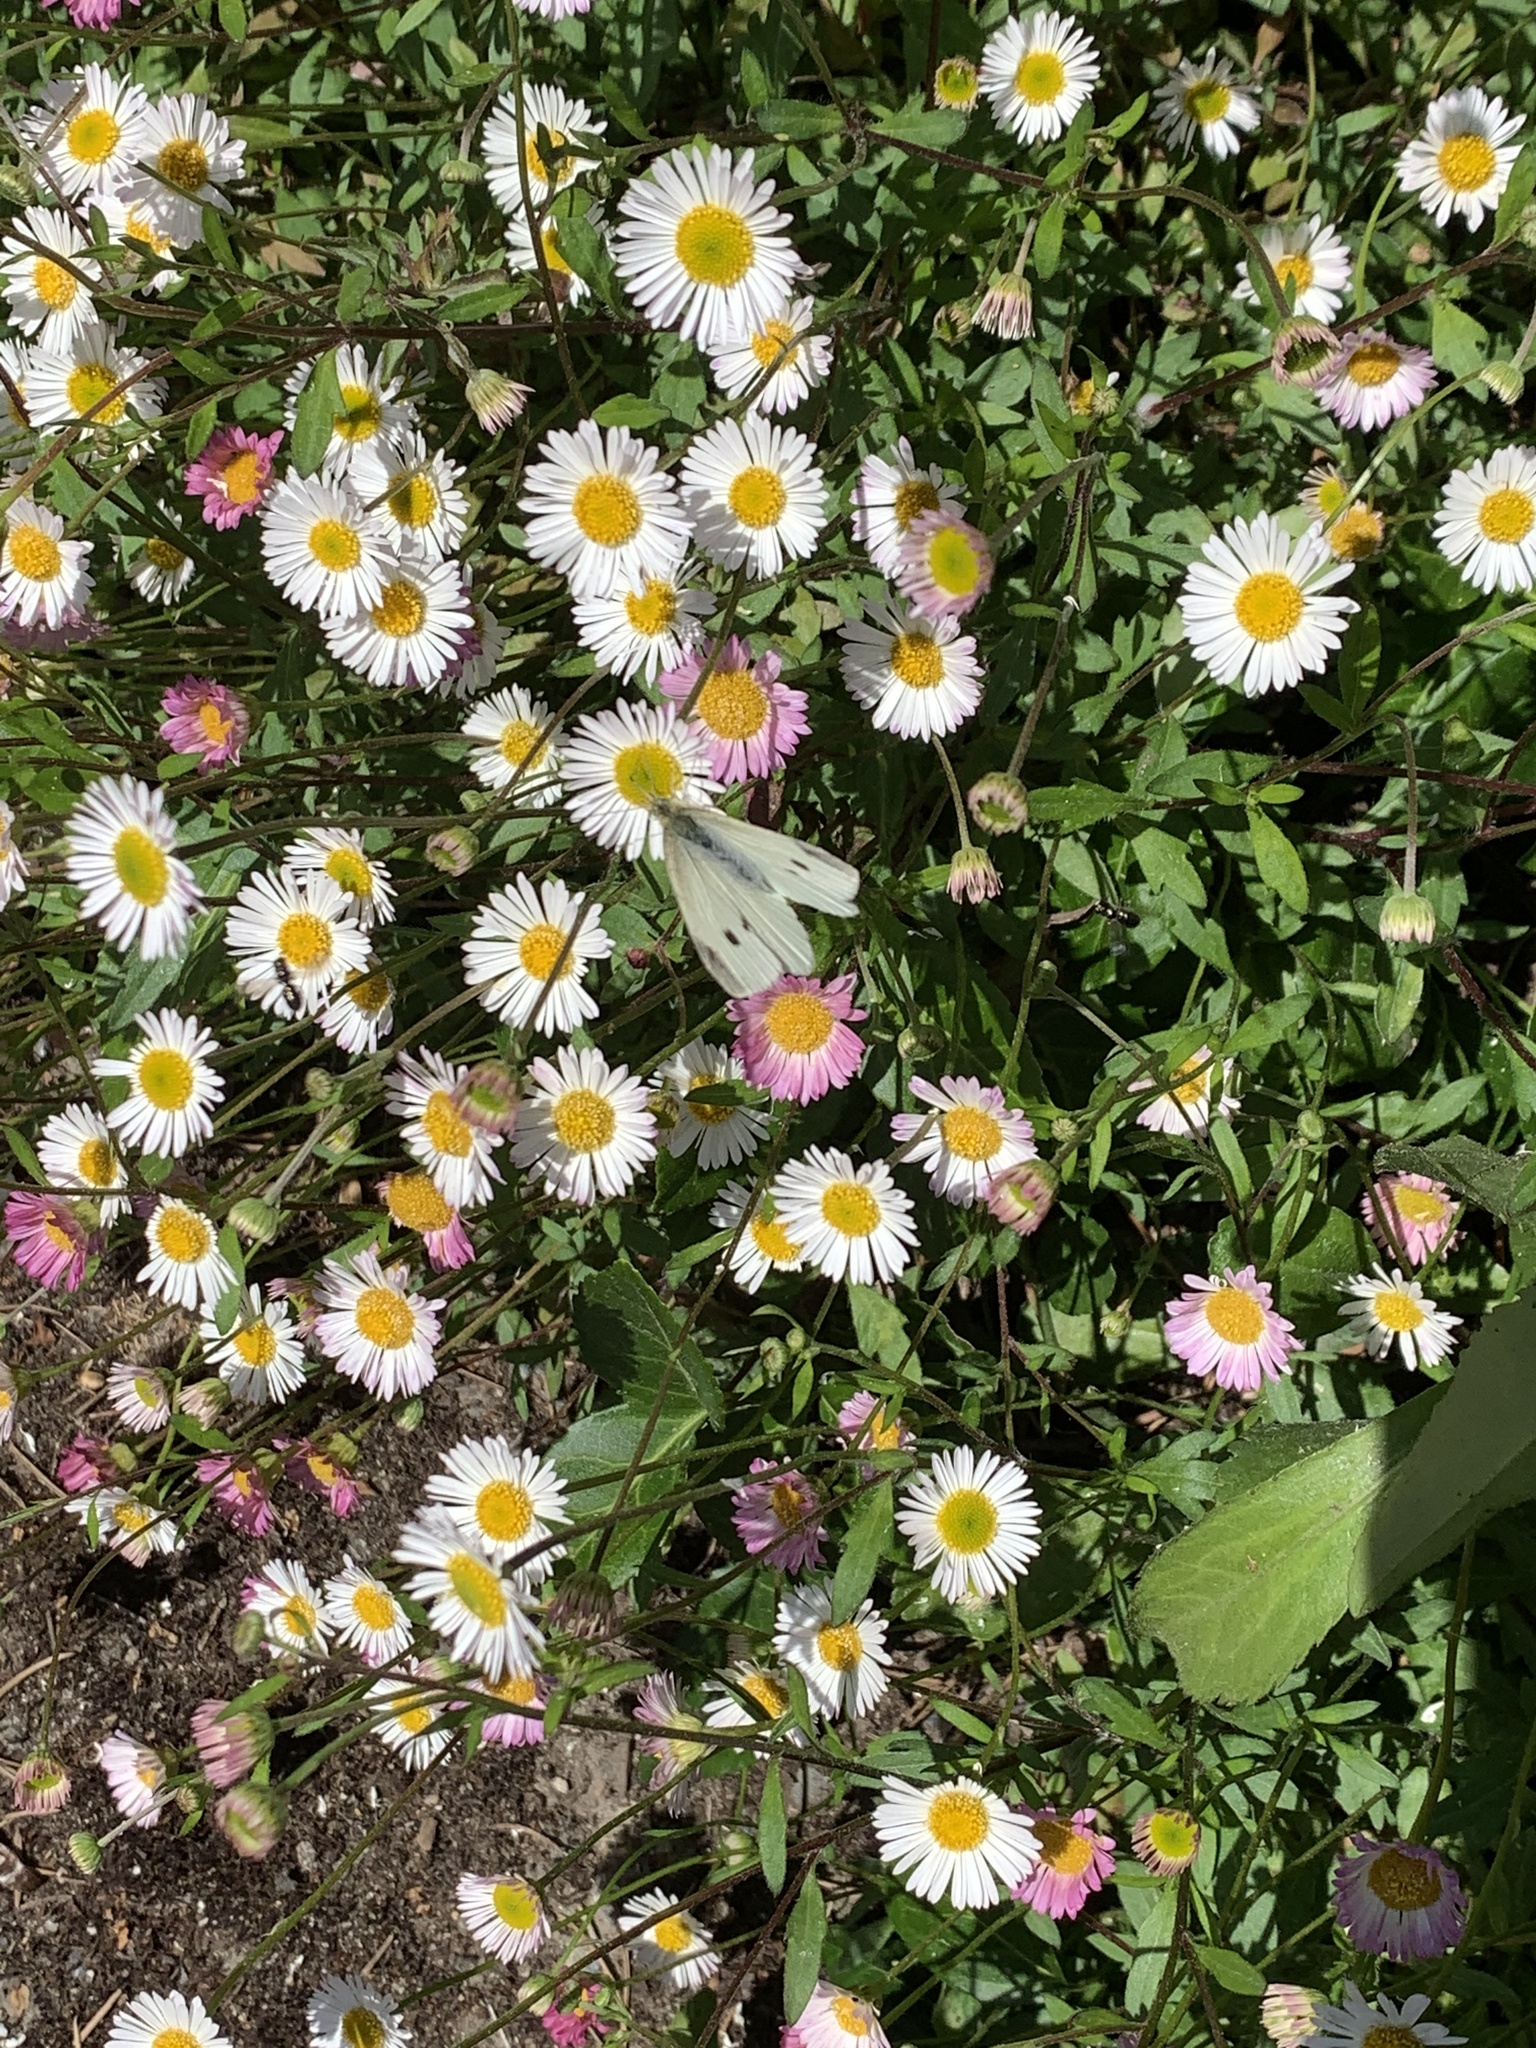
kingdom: Animalia
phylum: Arthropoda
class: Insecta
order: Lepidoptera
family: Pieridae
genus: Pieris
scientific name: Pieris rapae
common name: Small white
